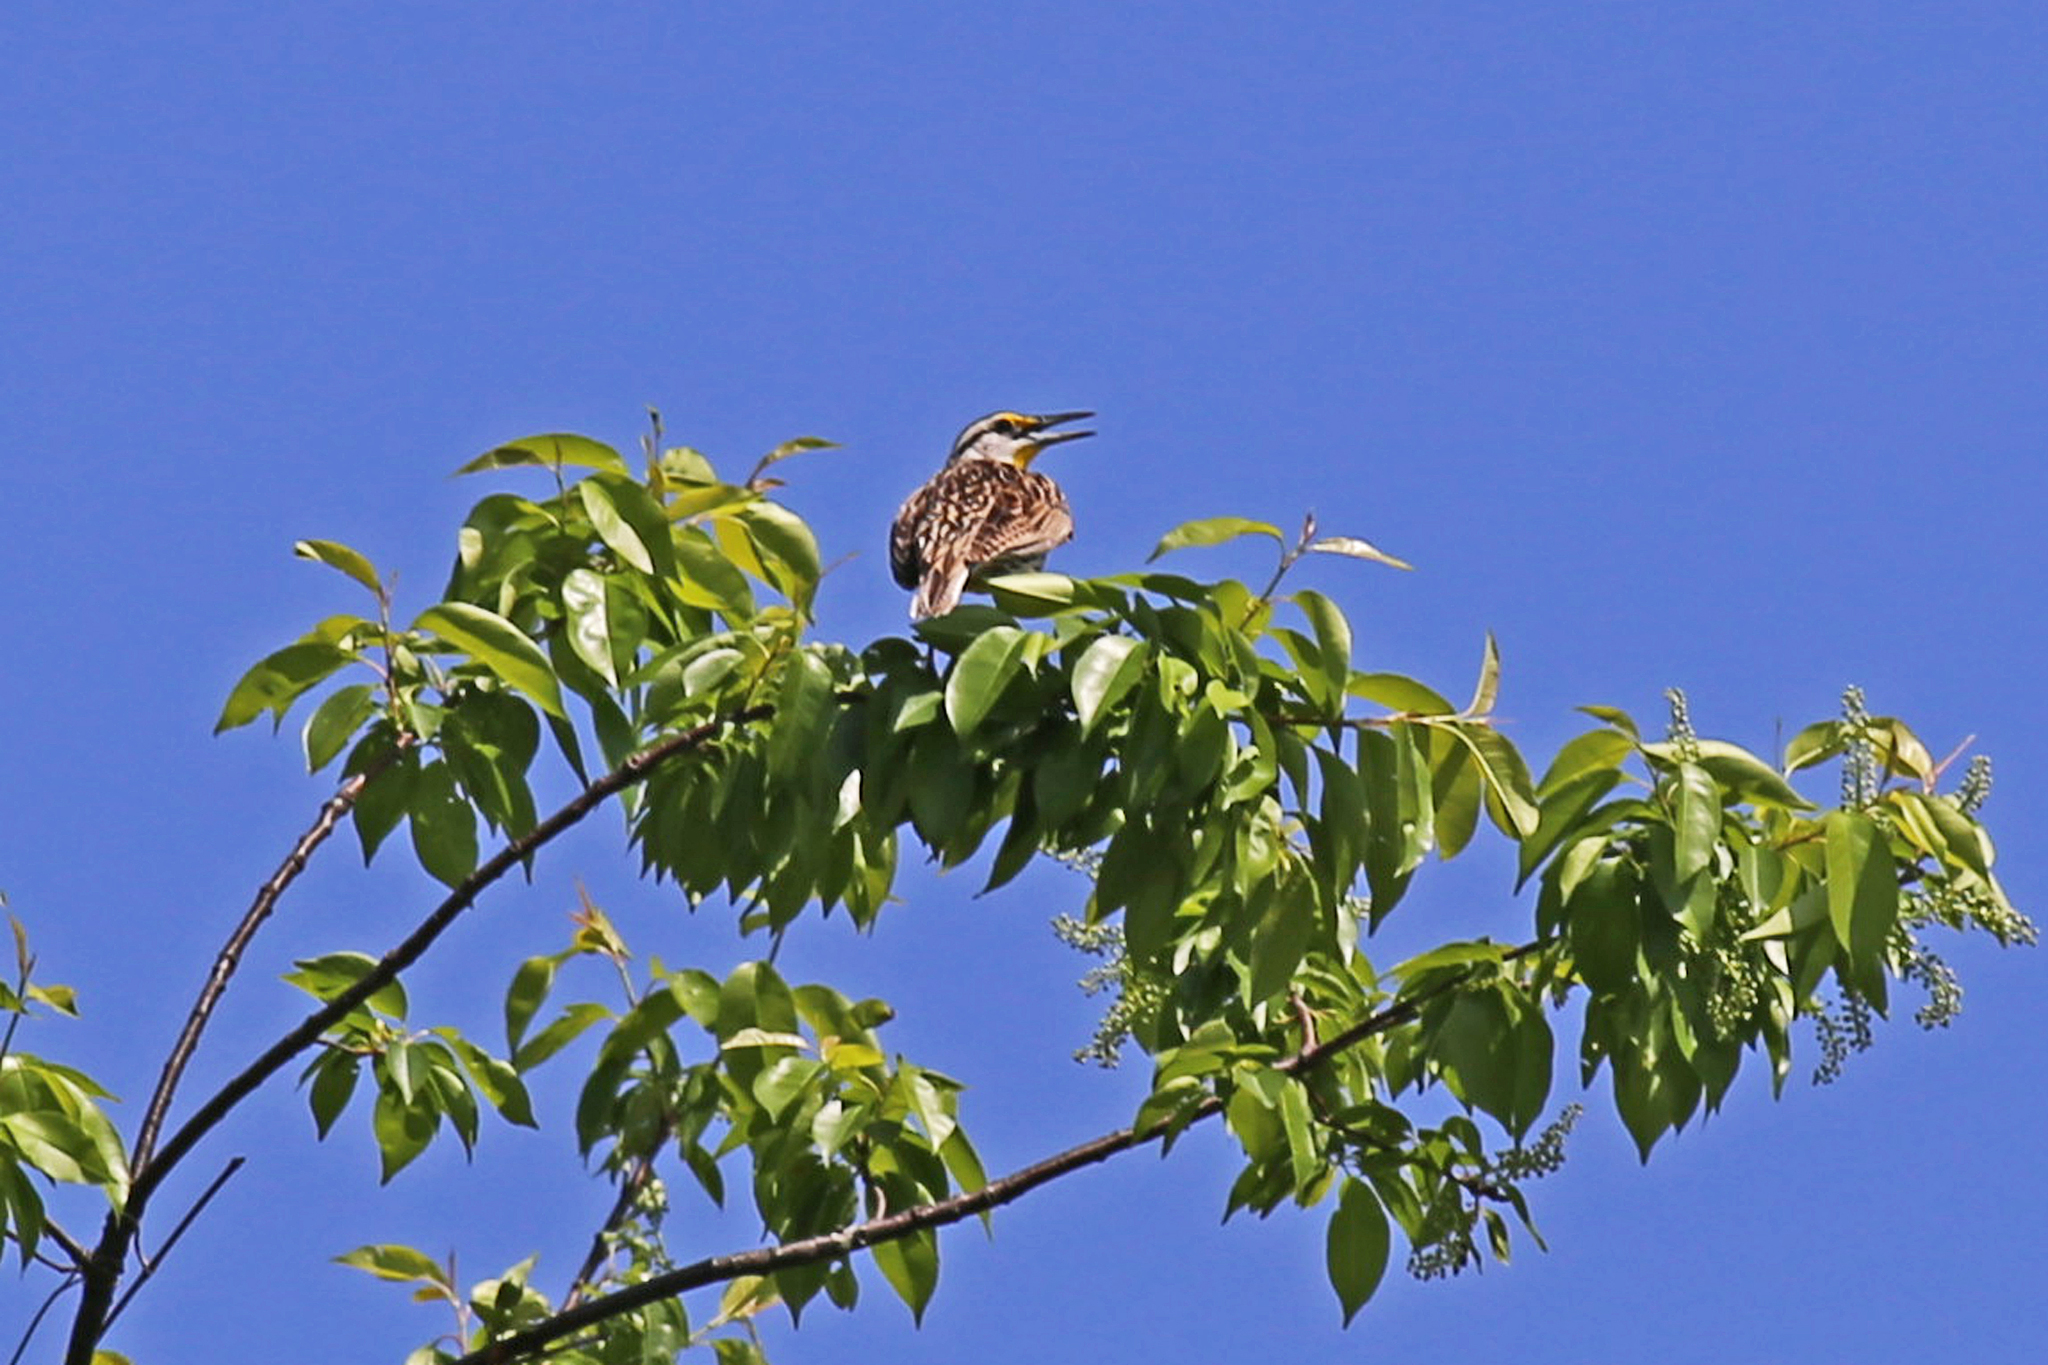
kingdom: Animalia
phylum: Chordata
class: Aves
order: Passeriformes
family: Icteridae
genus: Sturnella
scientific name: Sturnella magna
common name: Eastern meadowlark
